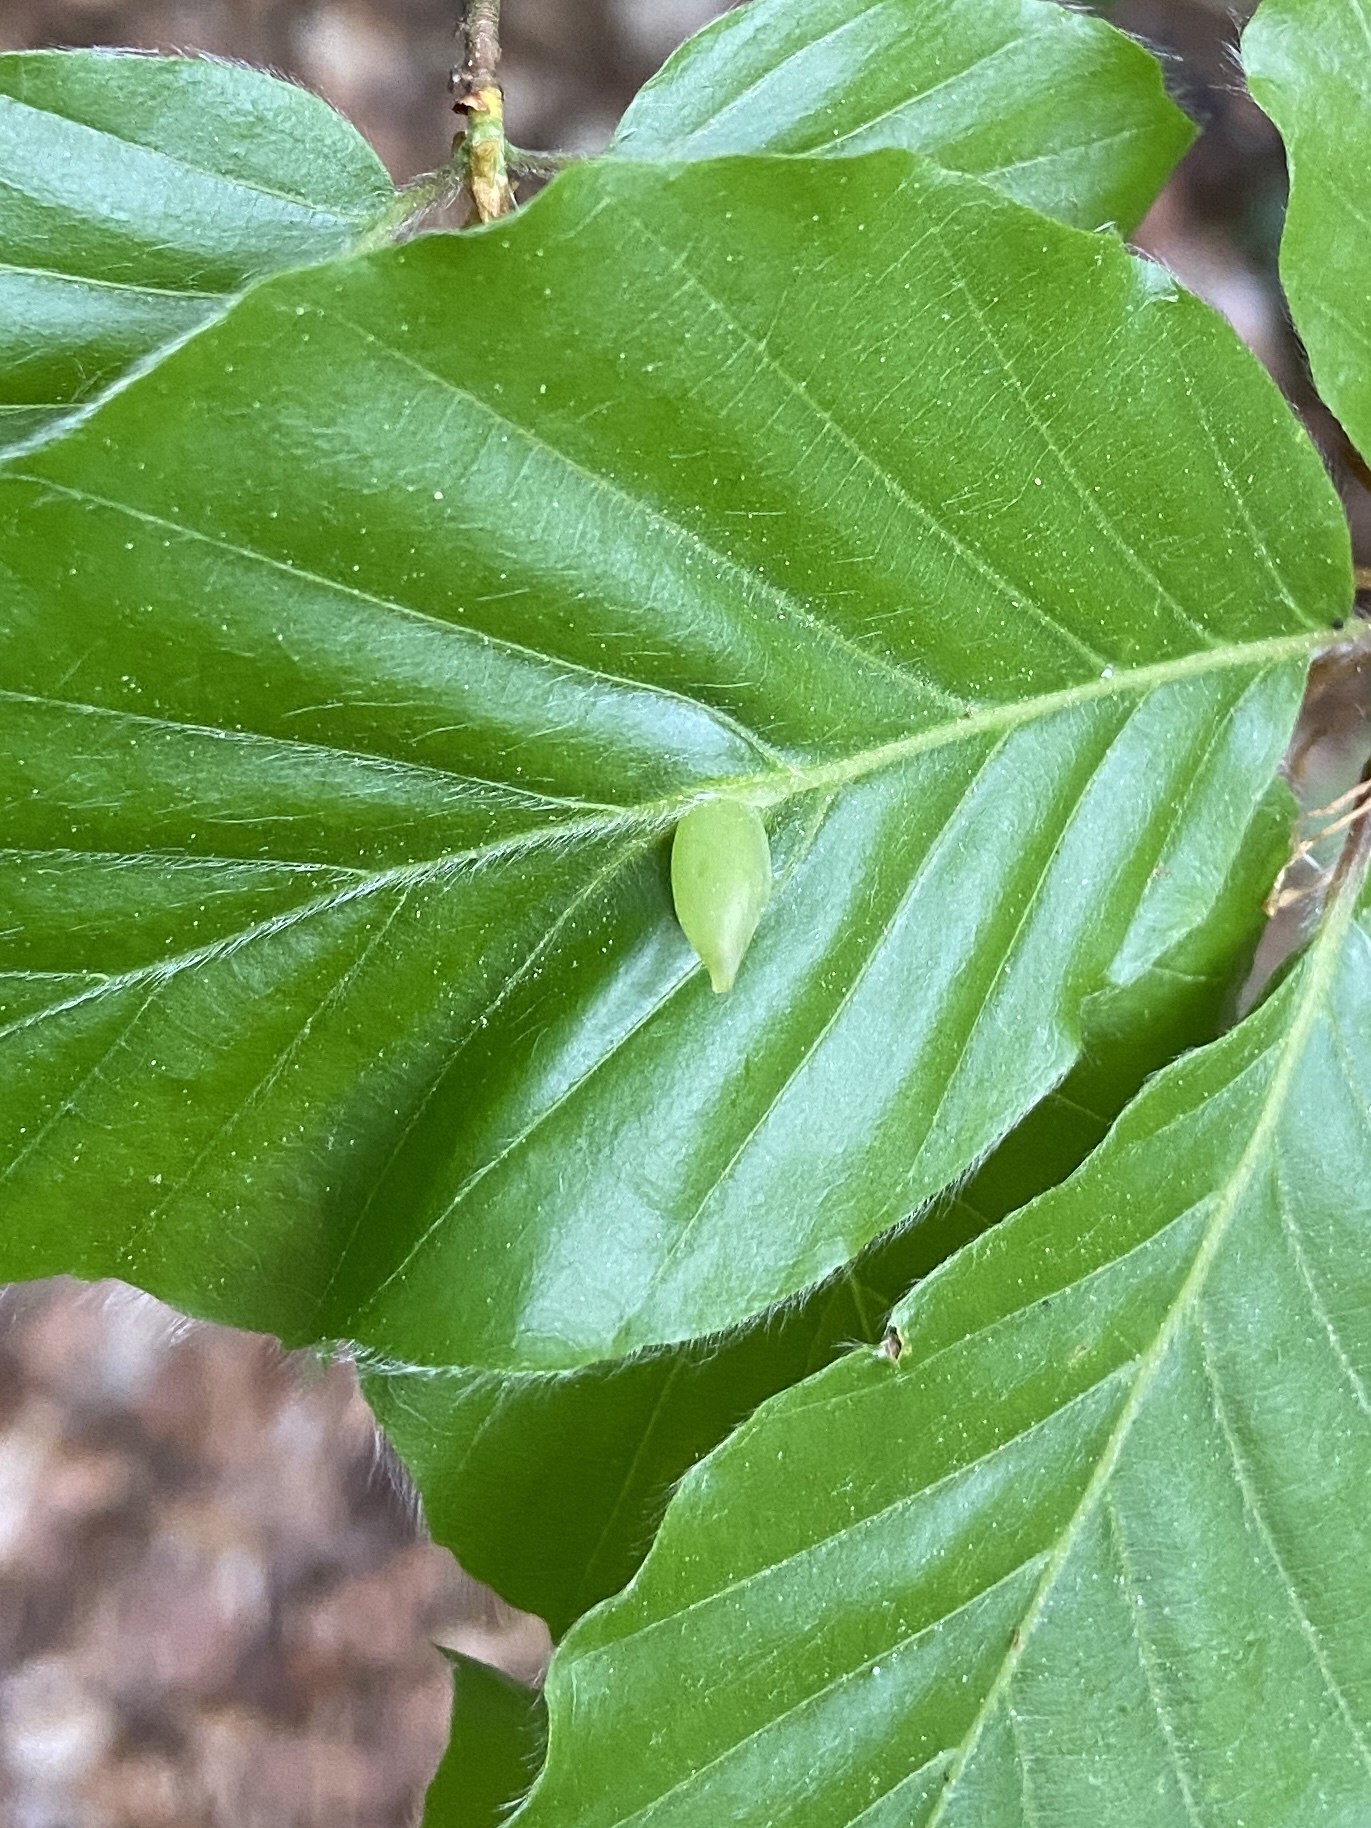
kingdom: Animalia
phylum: Arthropoda
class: Insecta
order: Diptera
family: Cecidomyiidae
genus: Mikiola
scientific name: Mikiola fagi
